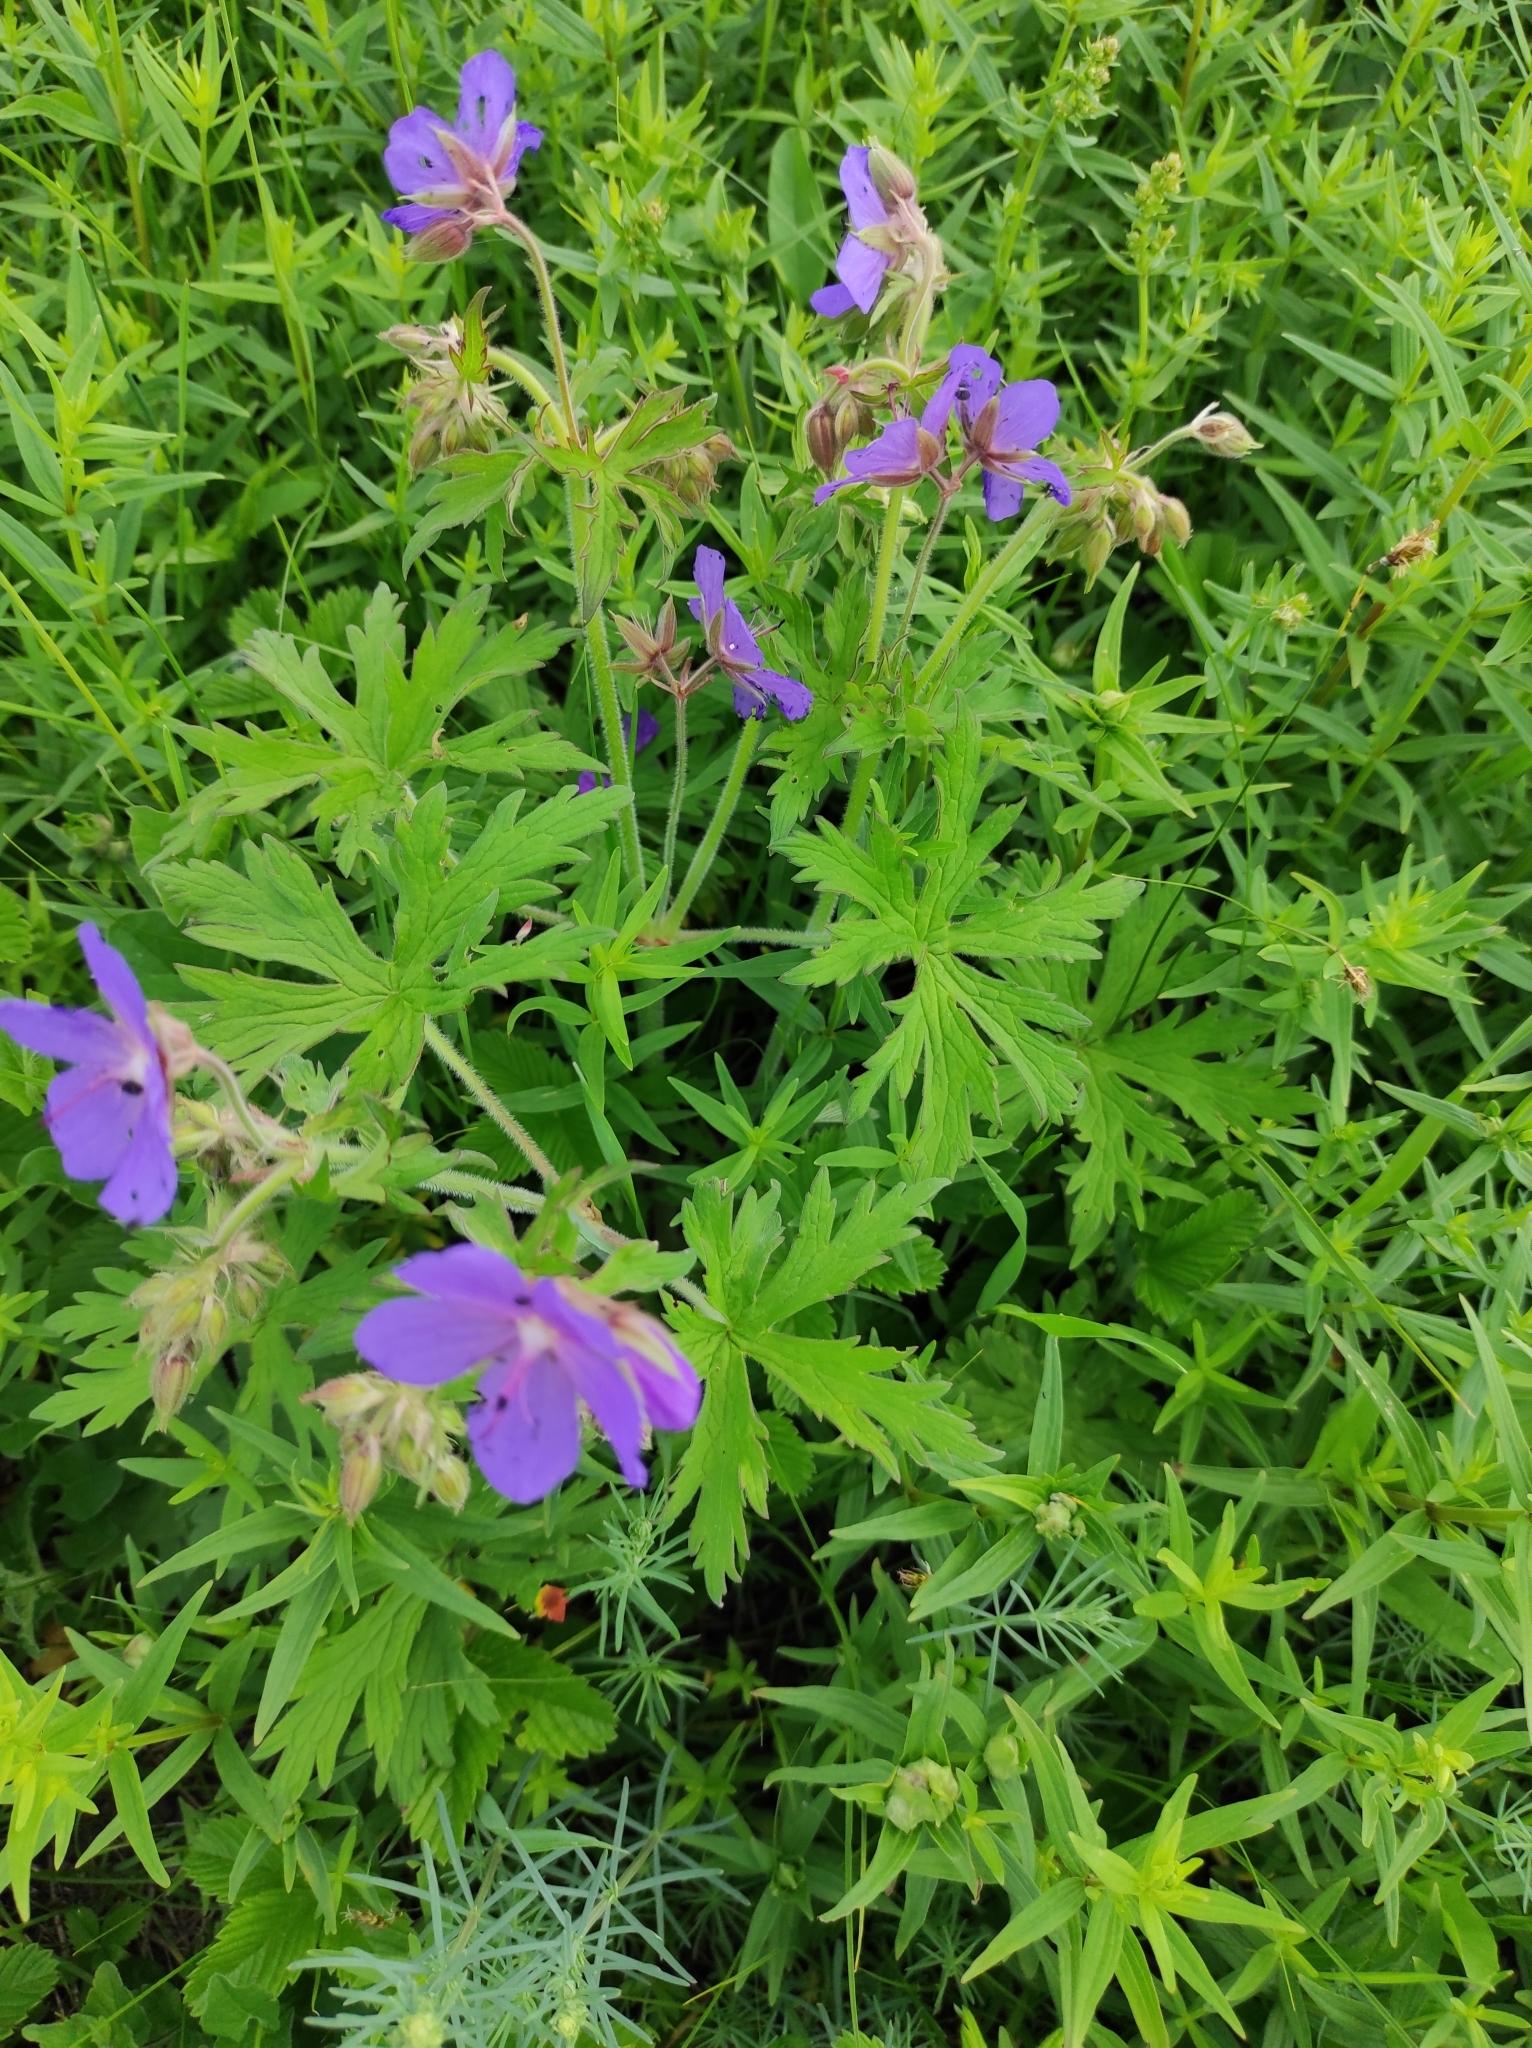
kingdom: Plantae
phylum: Tracheophyta
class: Magnoliopsida
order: Geraniales
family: Geraniaceae
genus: Geranium
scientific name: Geranium pratense
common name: Meadow crane's-bill
